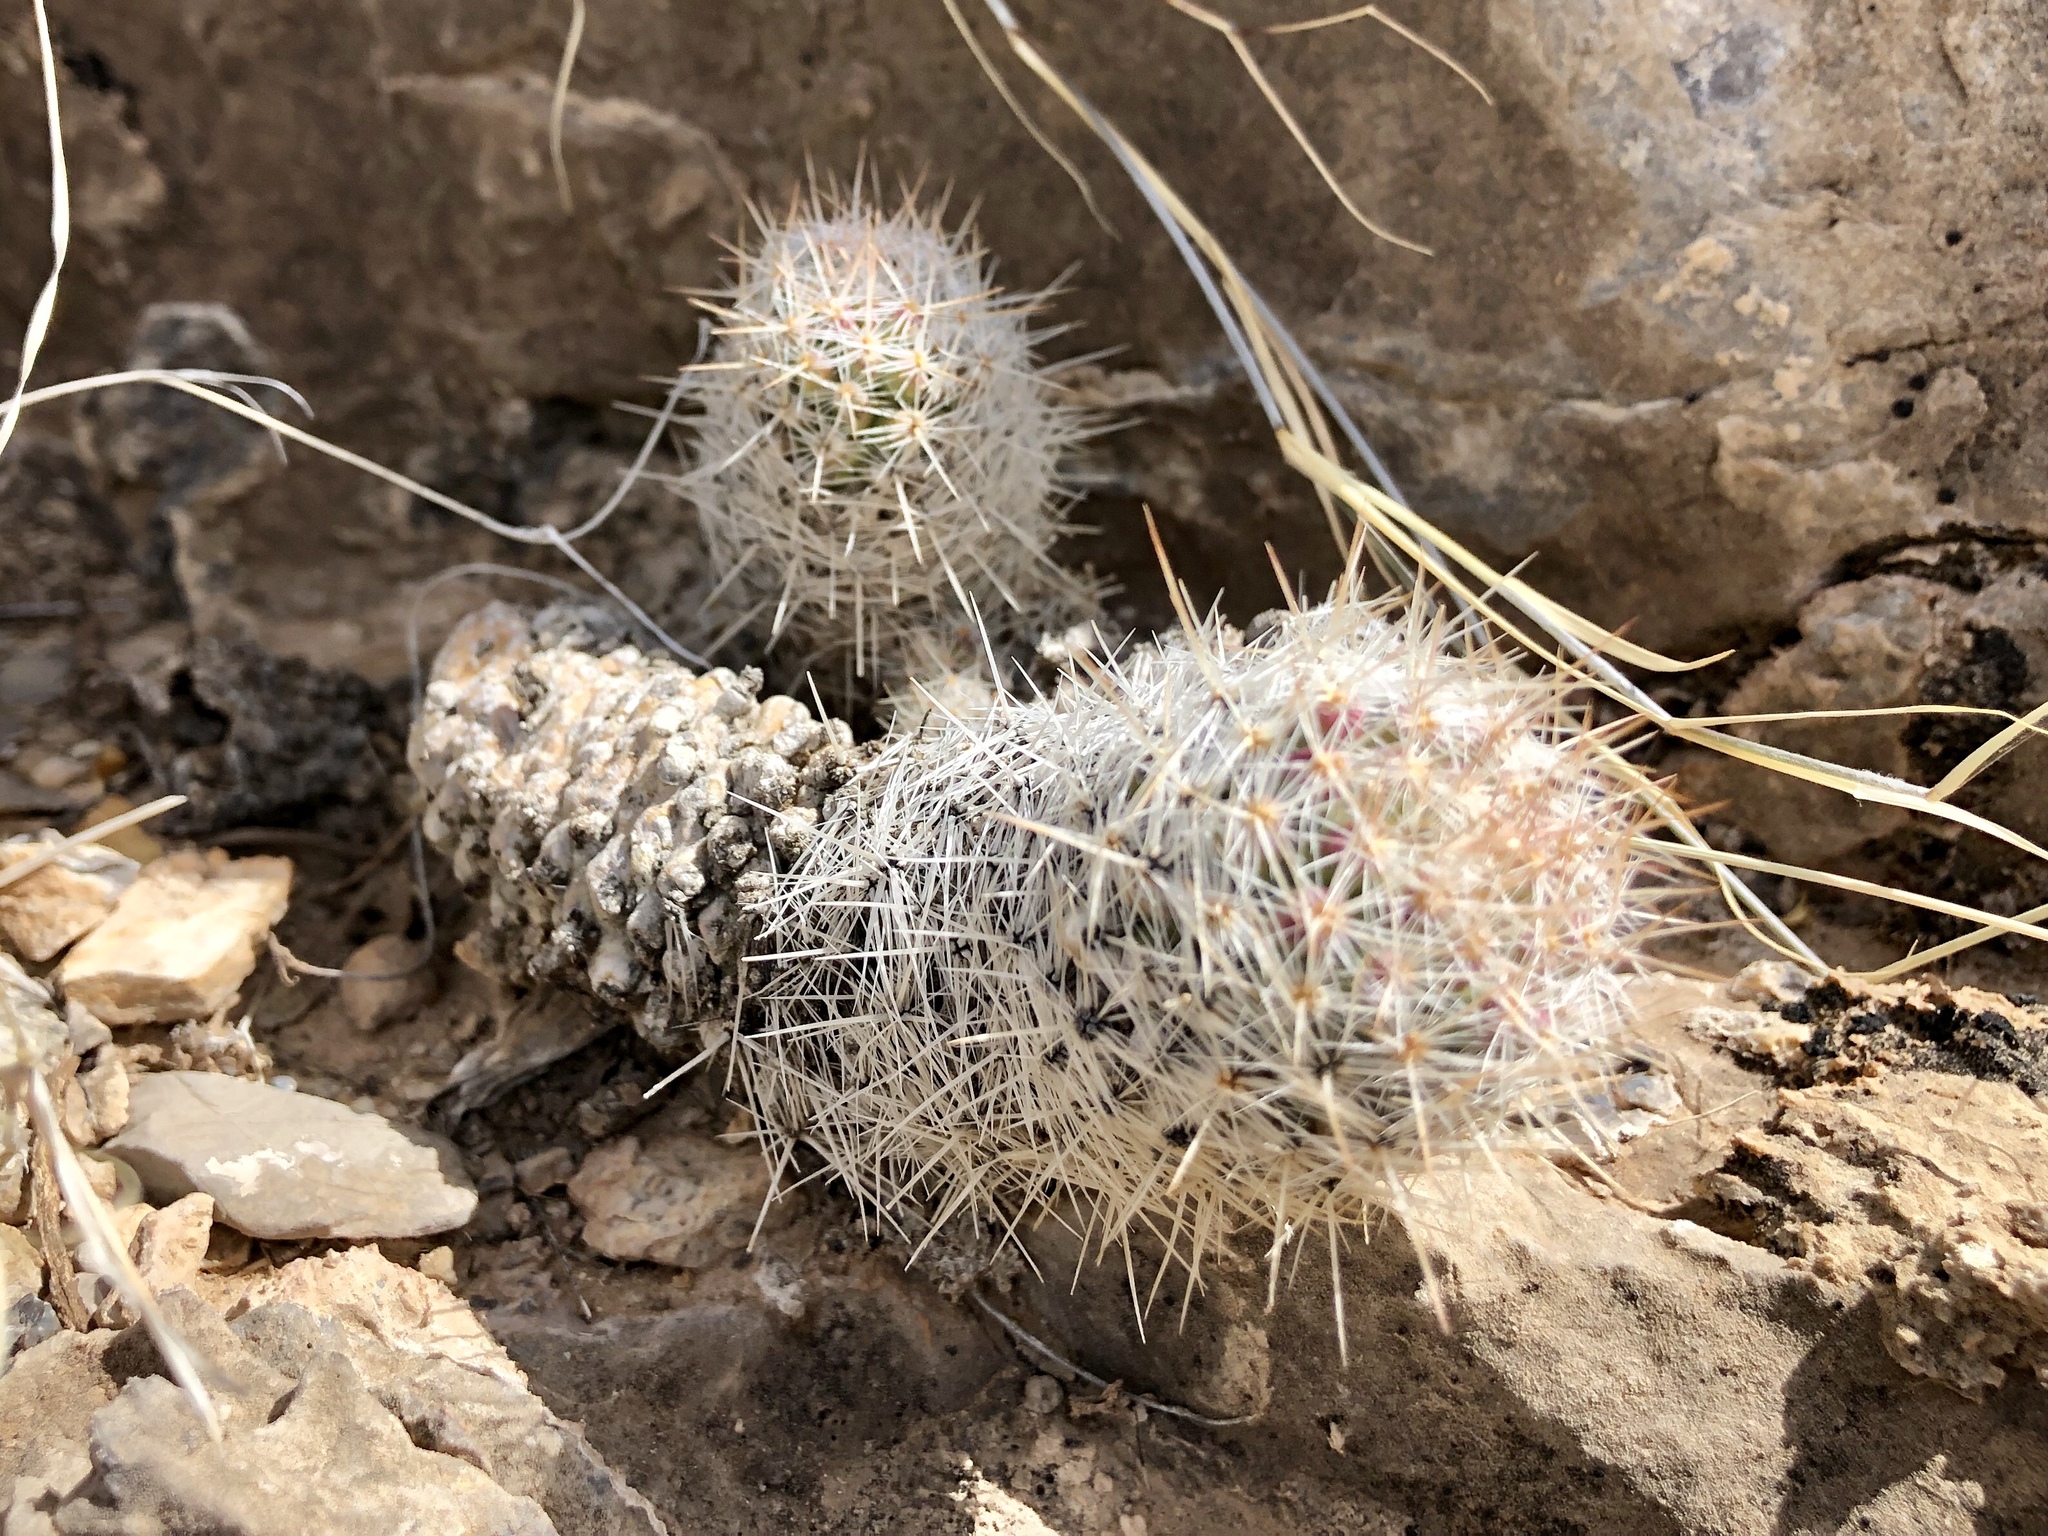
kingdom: Plantae
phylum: Tracheophyta
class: Magnoliopsida
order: Caryophyllales
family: Cactaceae
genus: Pelecyphora
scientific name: Pelecyphora tuberculosa
